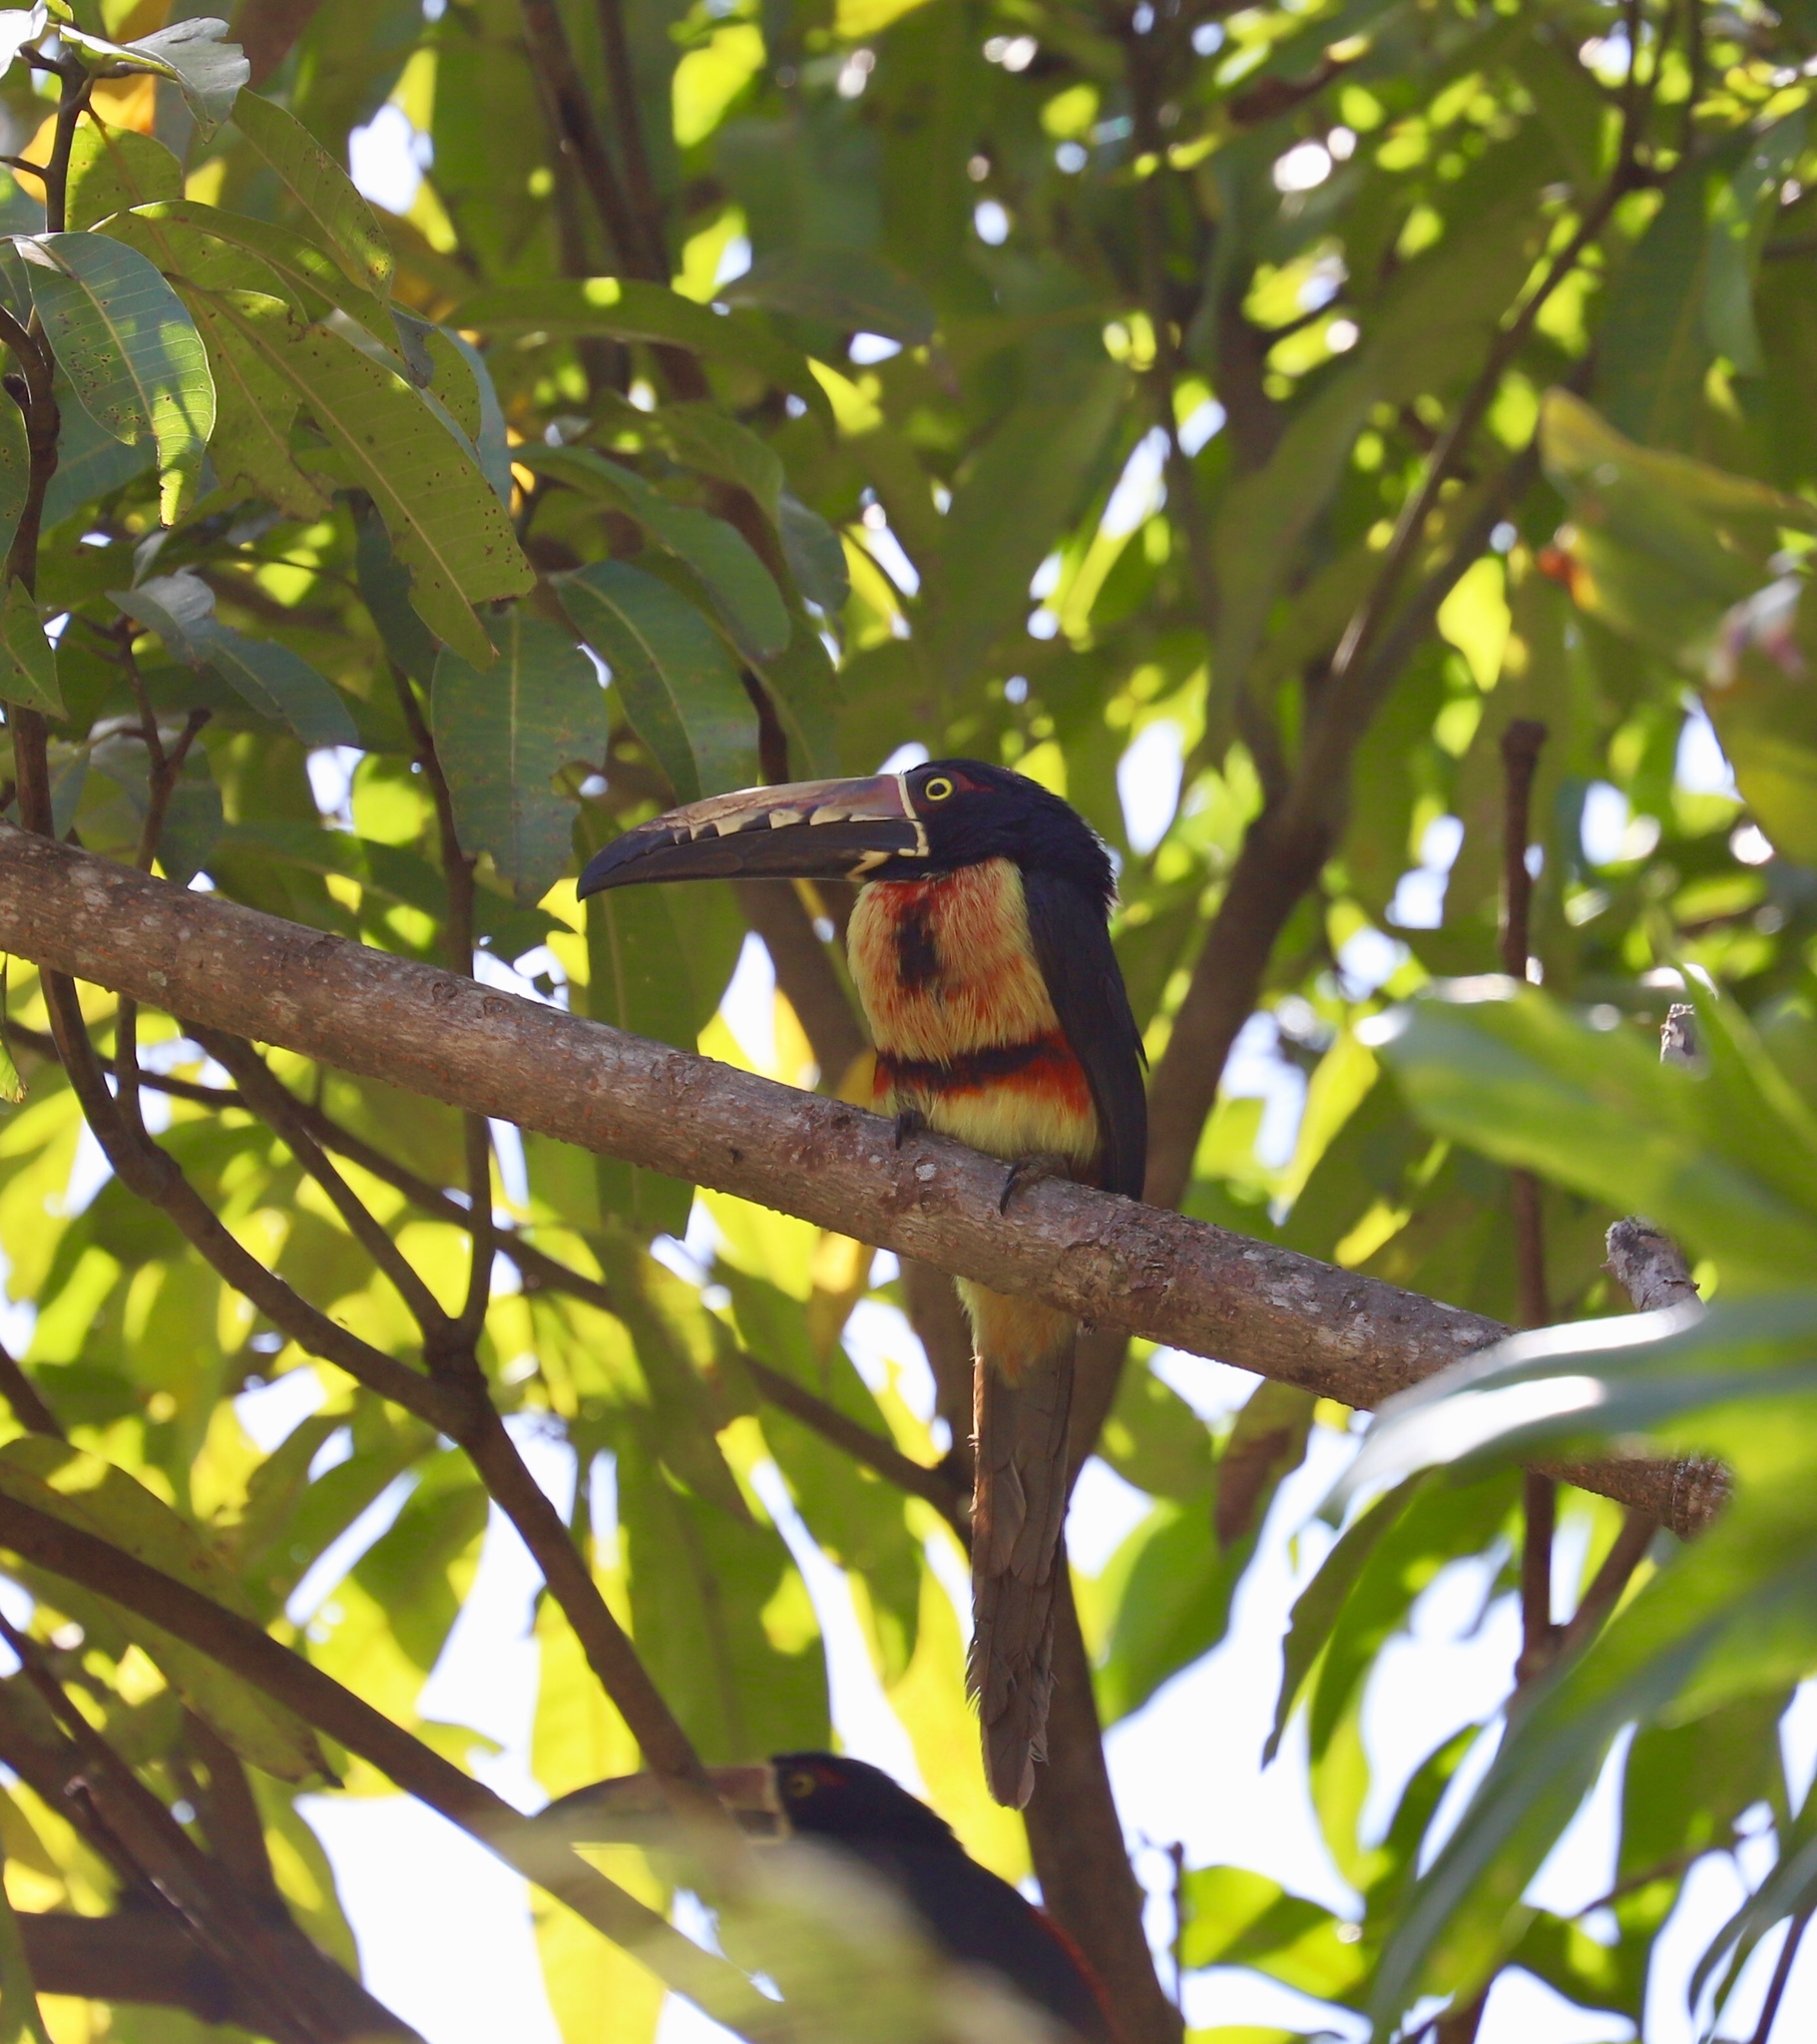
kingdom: Animalia
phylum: Chordata
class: Aves
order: Piciformes
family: Ramphastidae
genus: Pteroglossus
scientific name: Pteroglossus torquatus
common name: Collared aracari
